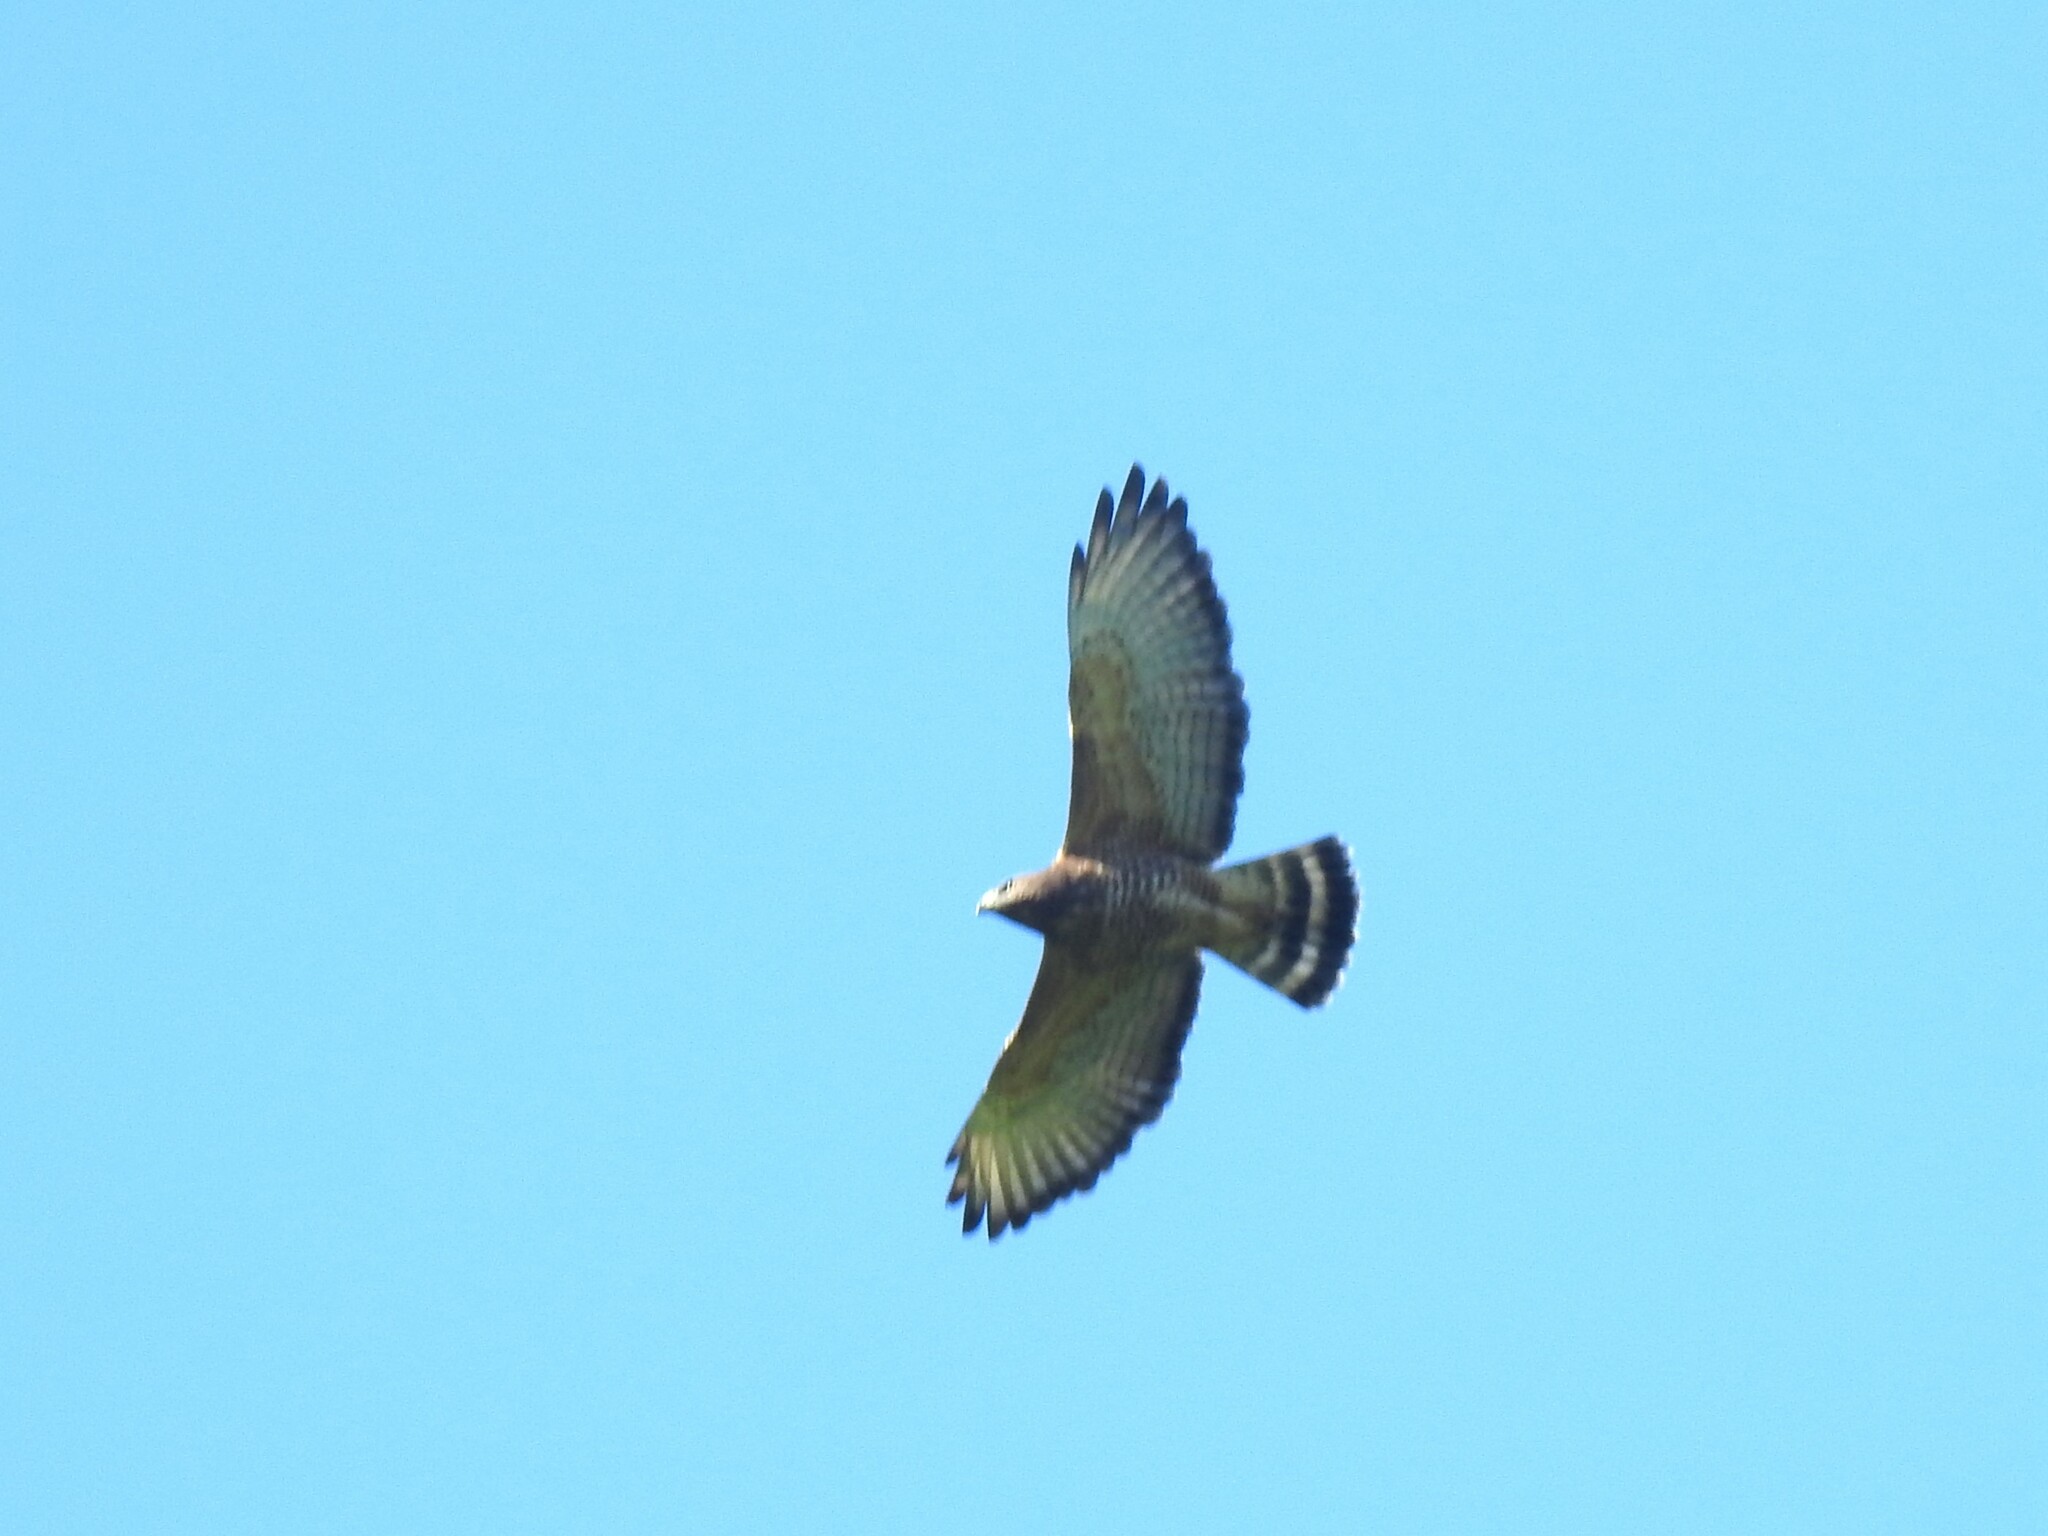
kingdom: Animalia
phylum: Chordata
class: Aves
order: Accipitriformes
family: Accipitridae
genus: Buteo
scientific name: Buteo platypterus
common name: Broad-winged hawk
